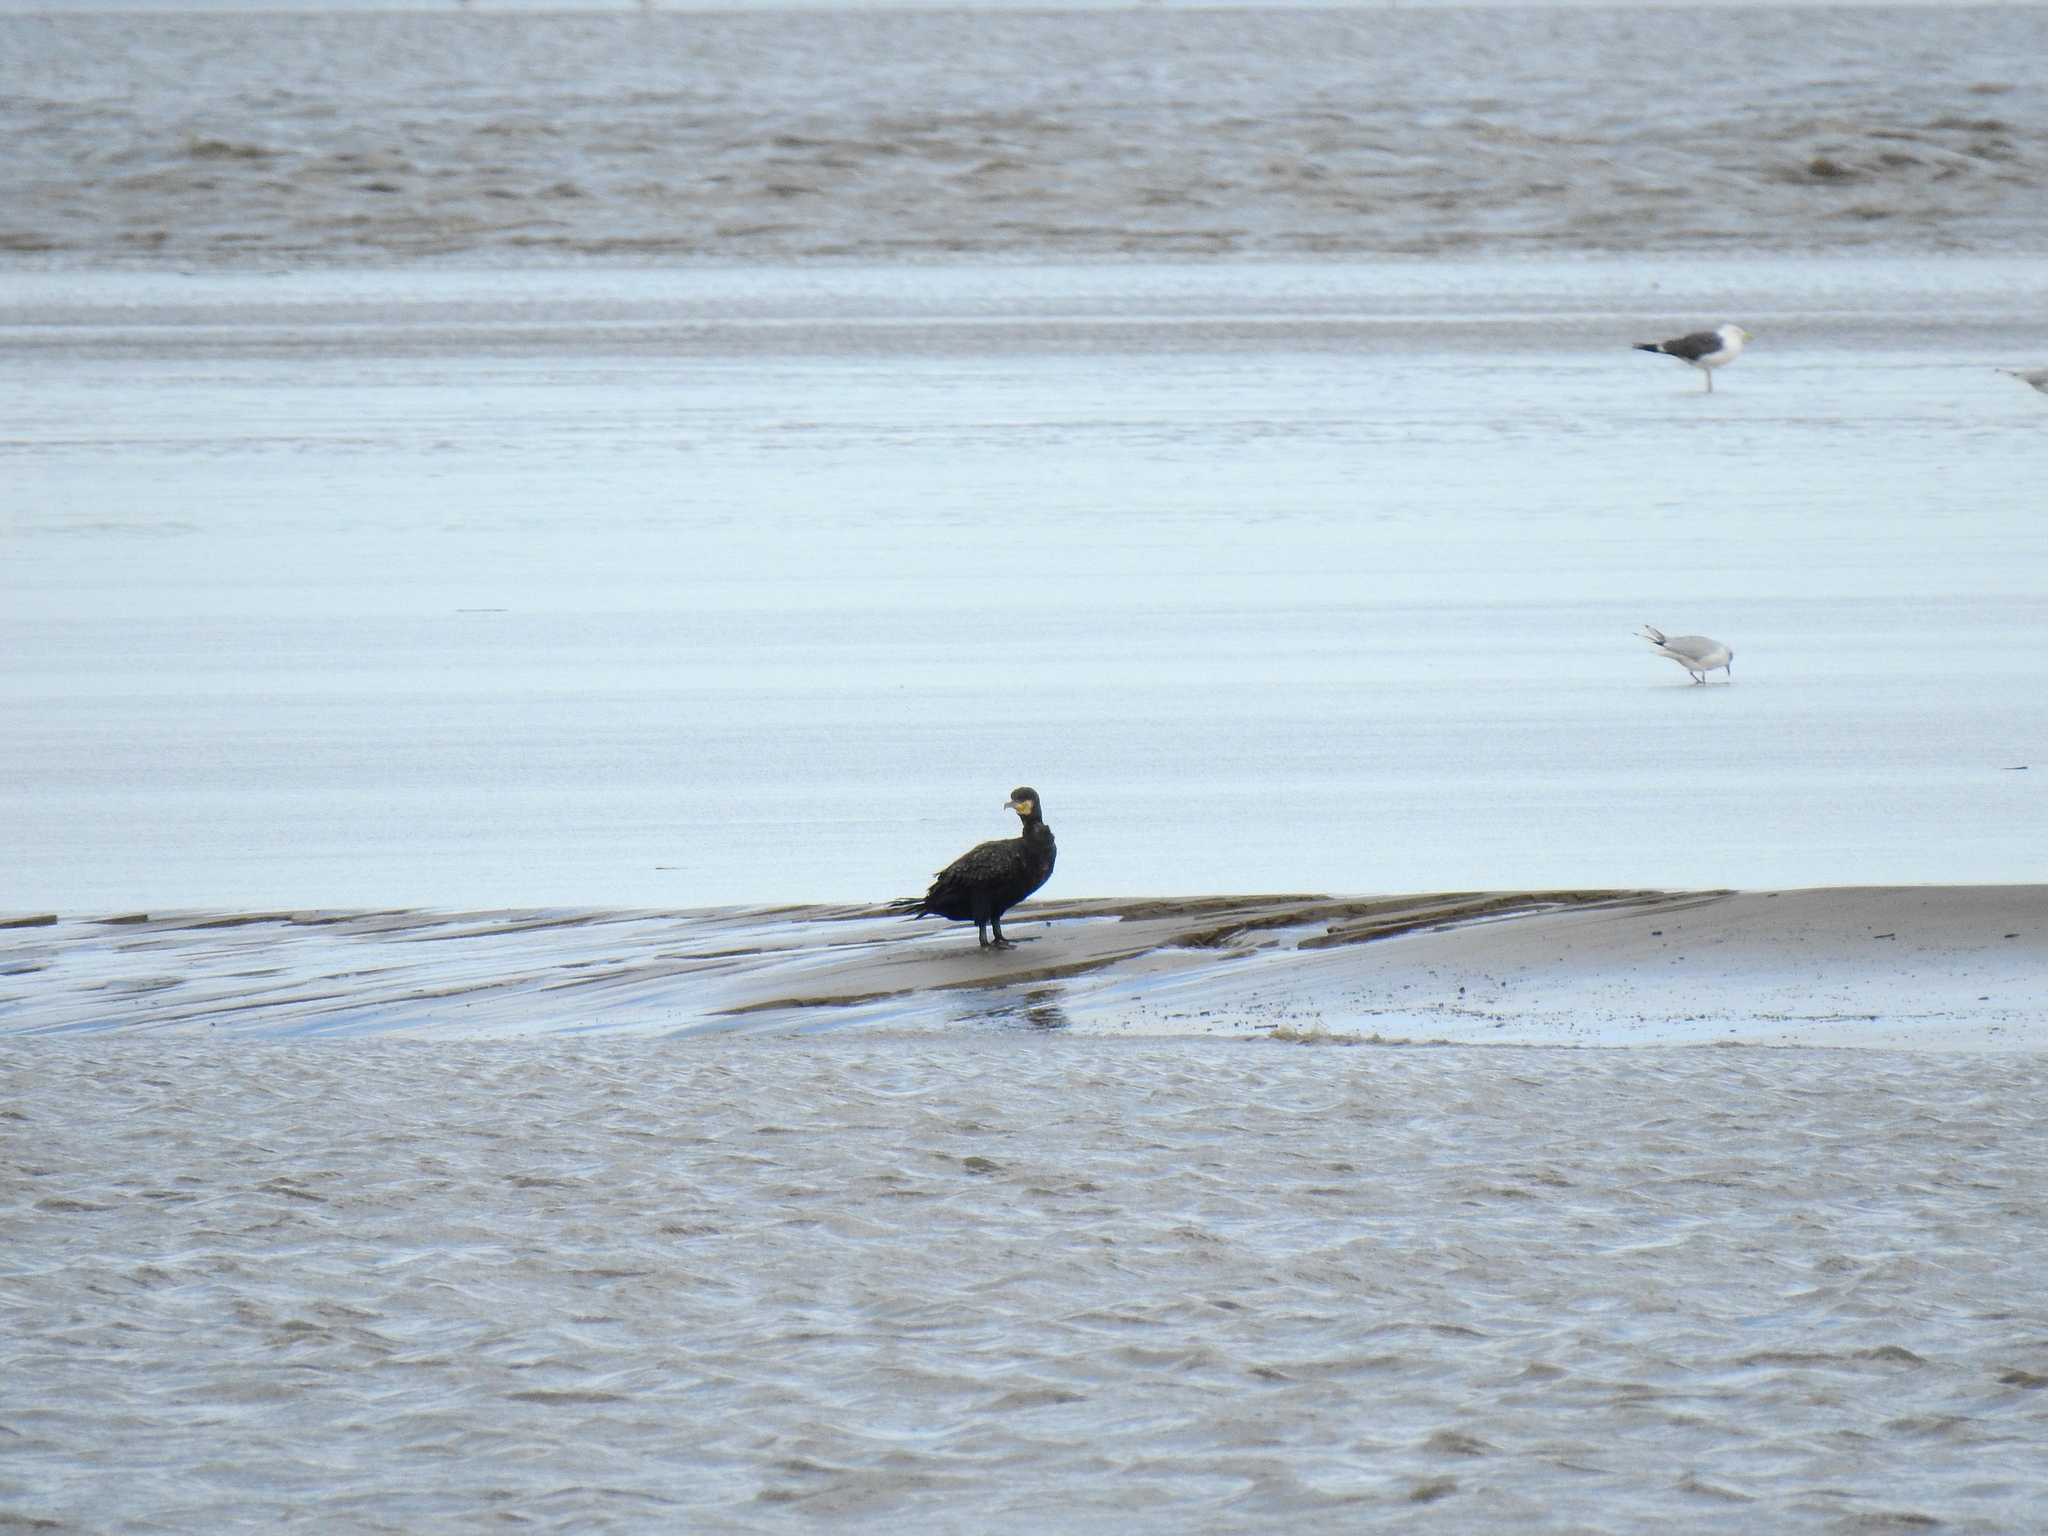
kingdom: Animalia
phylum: Chordata
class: Aves
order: Suliformes
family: Phalacrocoracidae
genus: Phalacrocorax
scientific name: Phalacrocorax carbo
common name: Great cormorant
